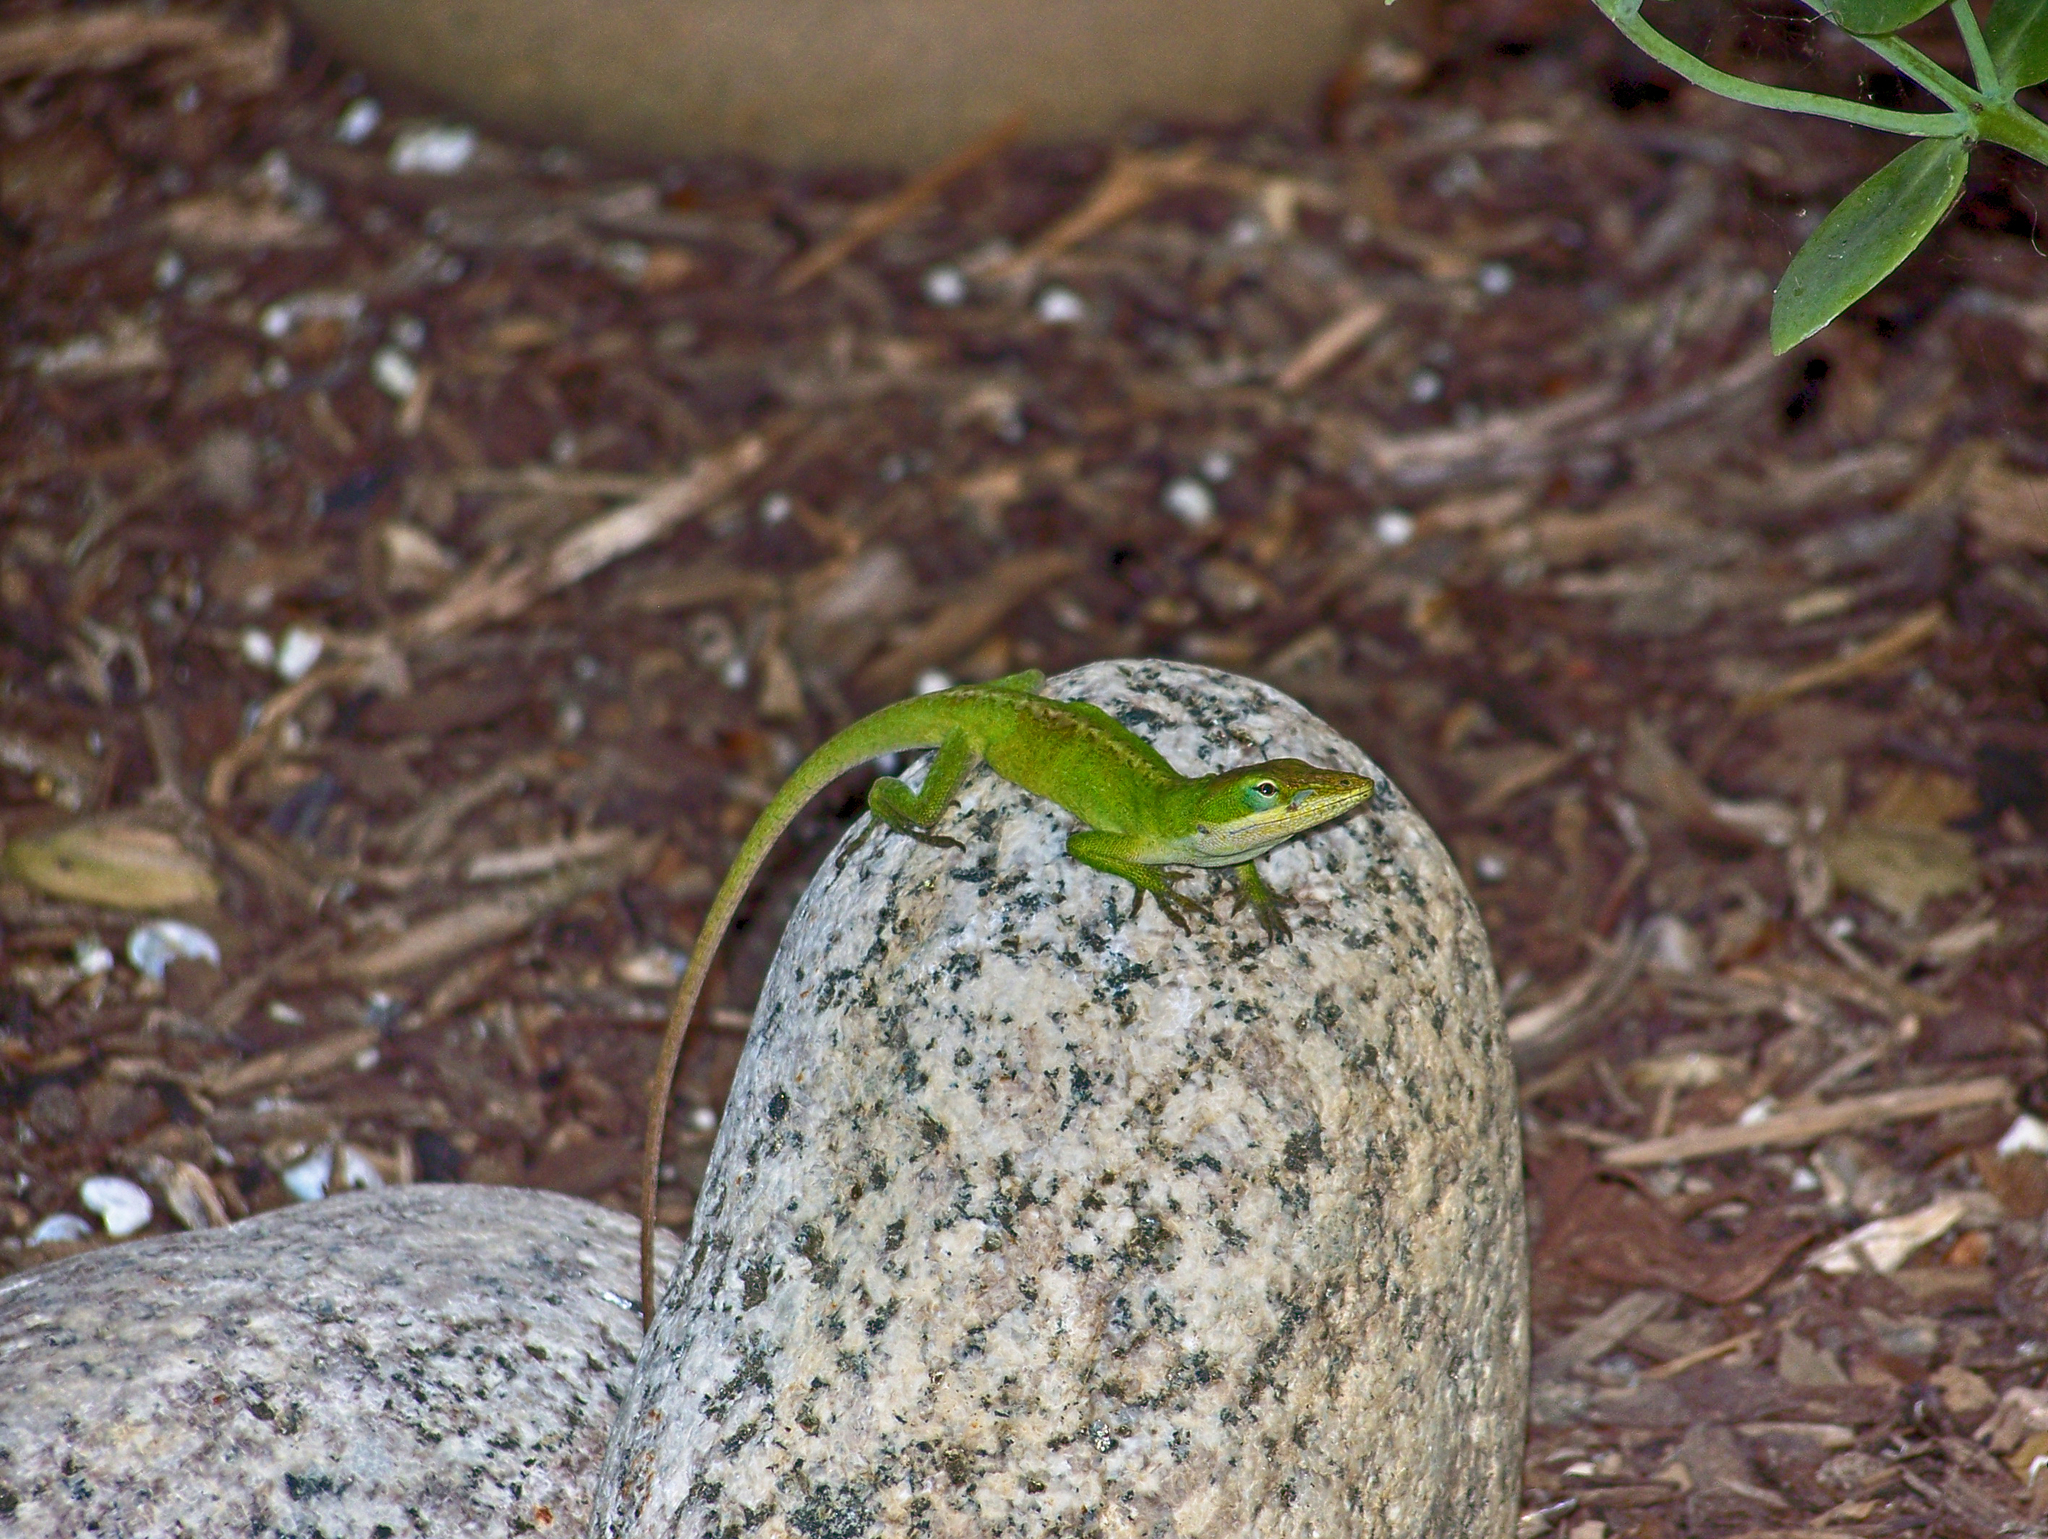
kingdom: Animalia
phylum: Chordata
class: Squamata
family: Dactyloidae
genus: Anolis
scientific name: Anolis carolinensis
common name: Green anole
